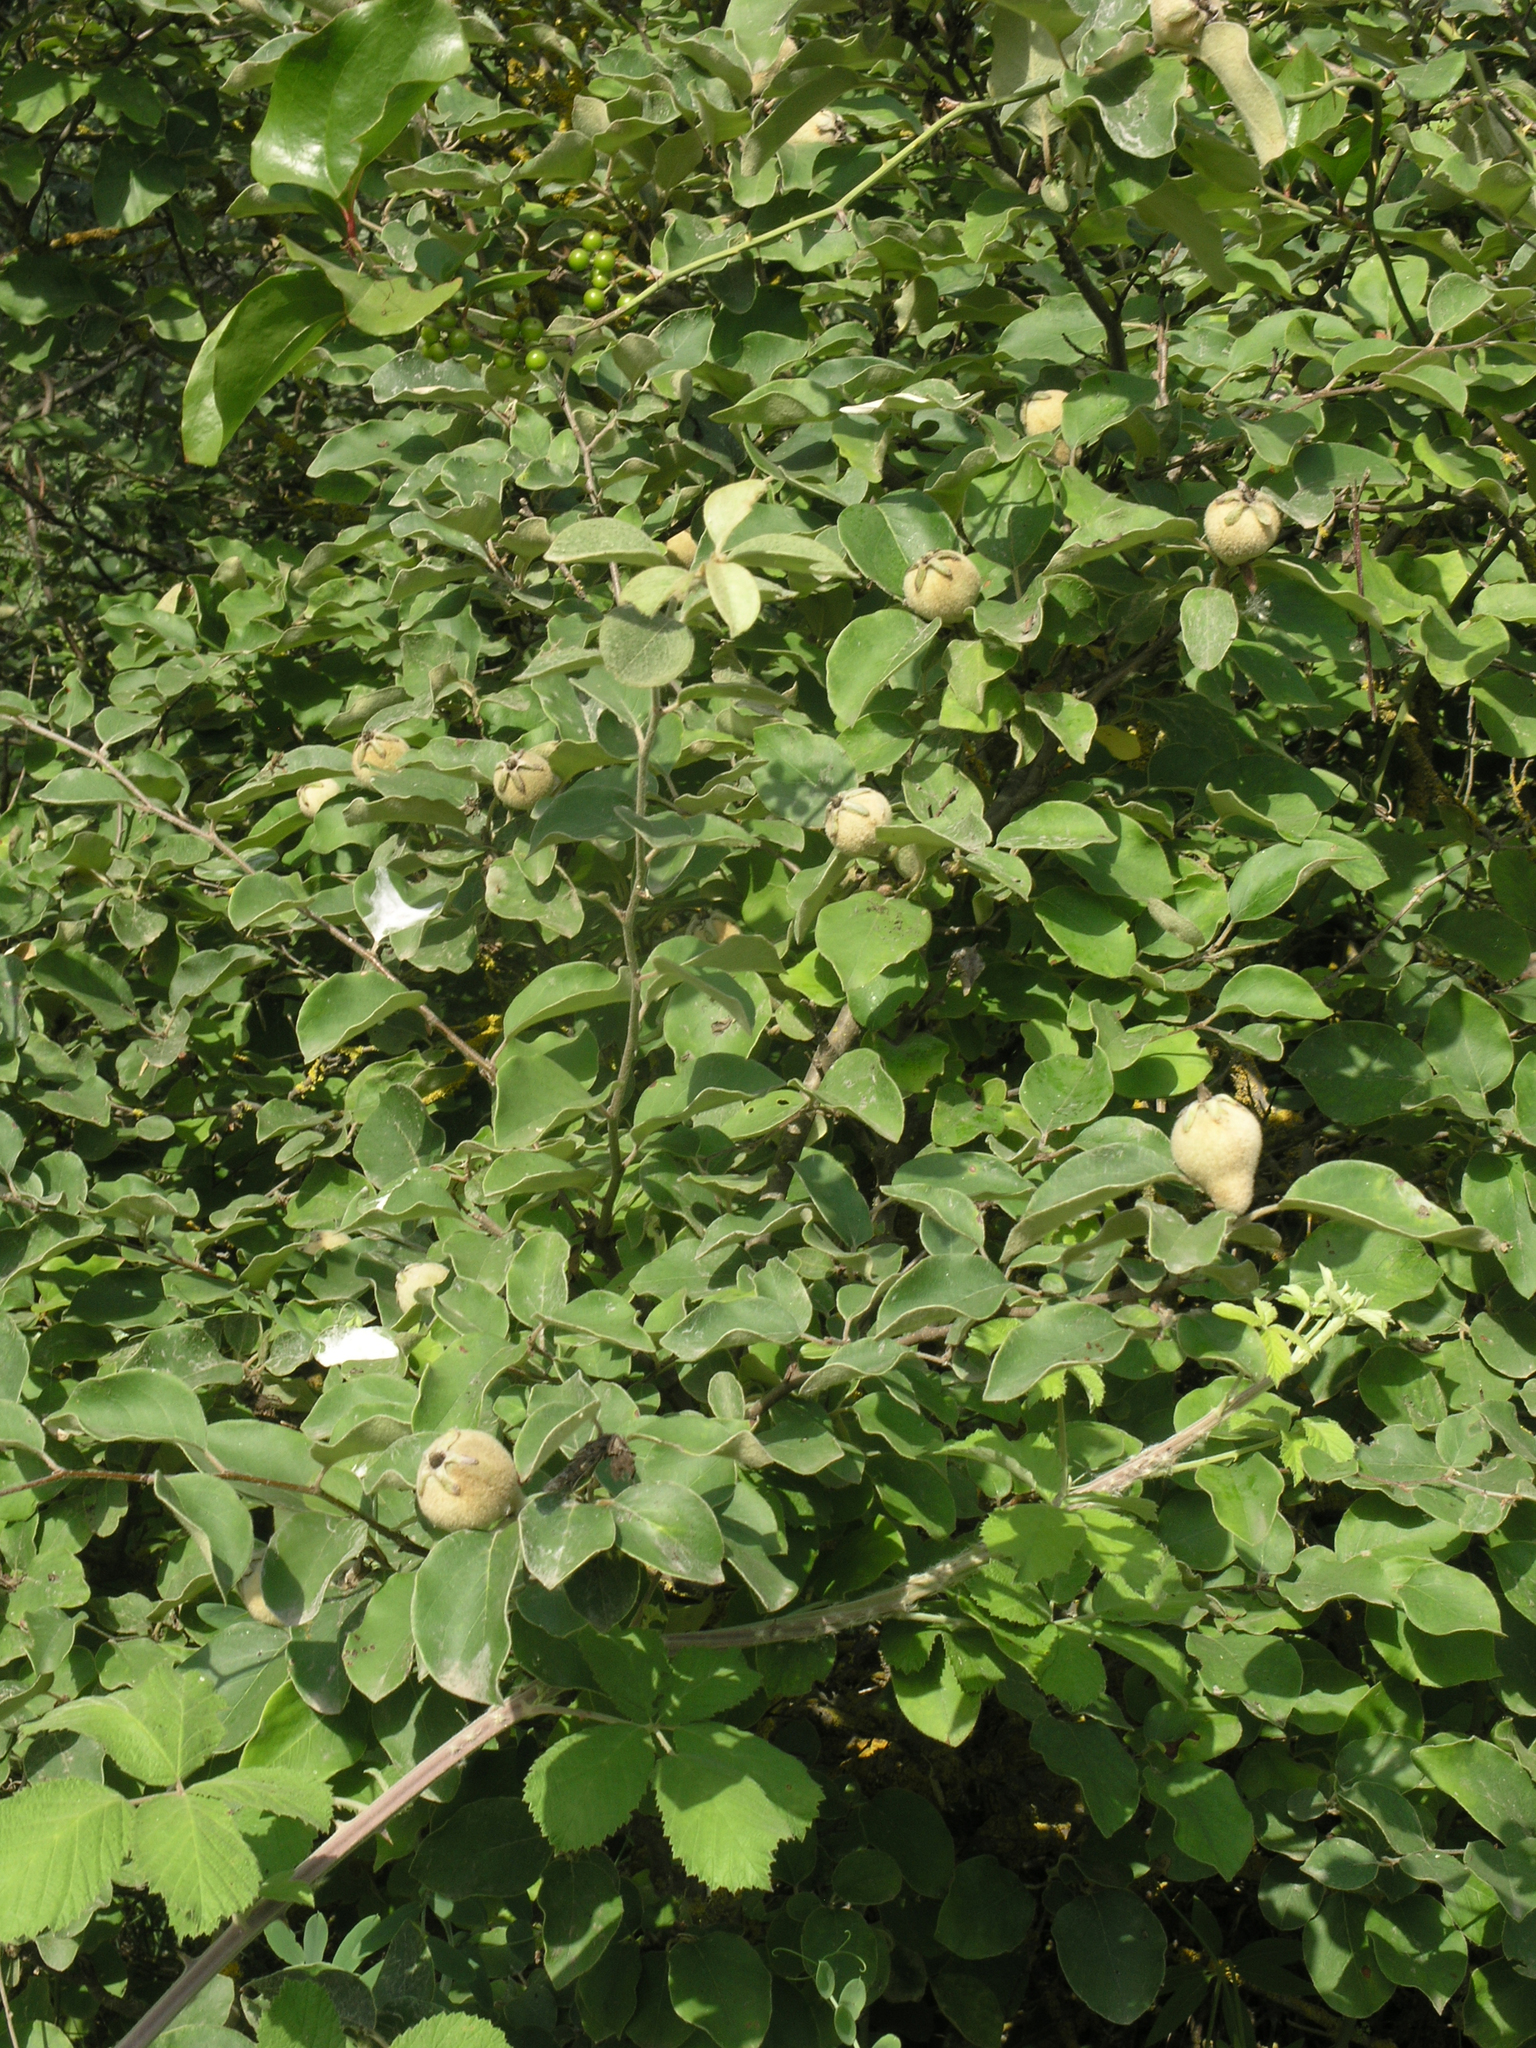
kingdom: Plantae
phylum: Tracheophyta
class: Magnoliopsida
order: Rosales
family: Rosaceae
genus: Mespilus
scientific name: Mespilus germanica
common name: Medlar
